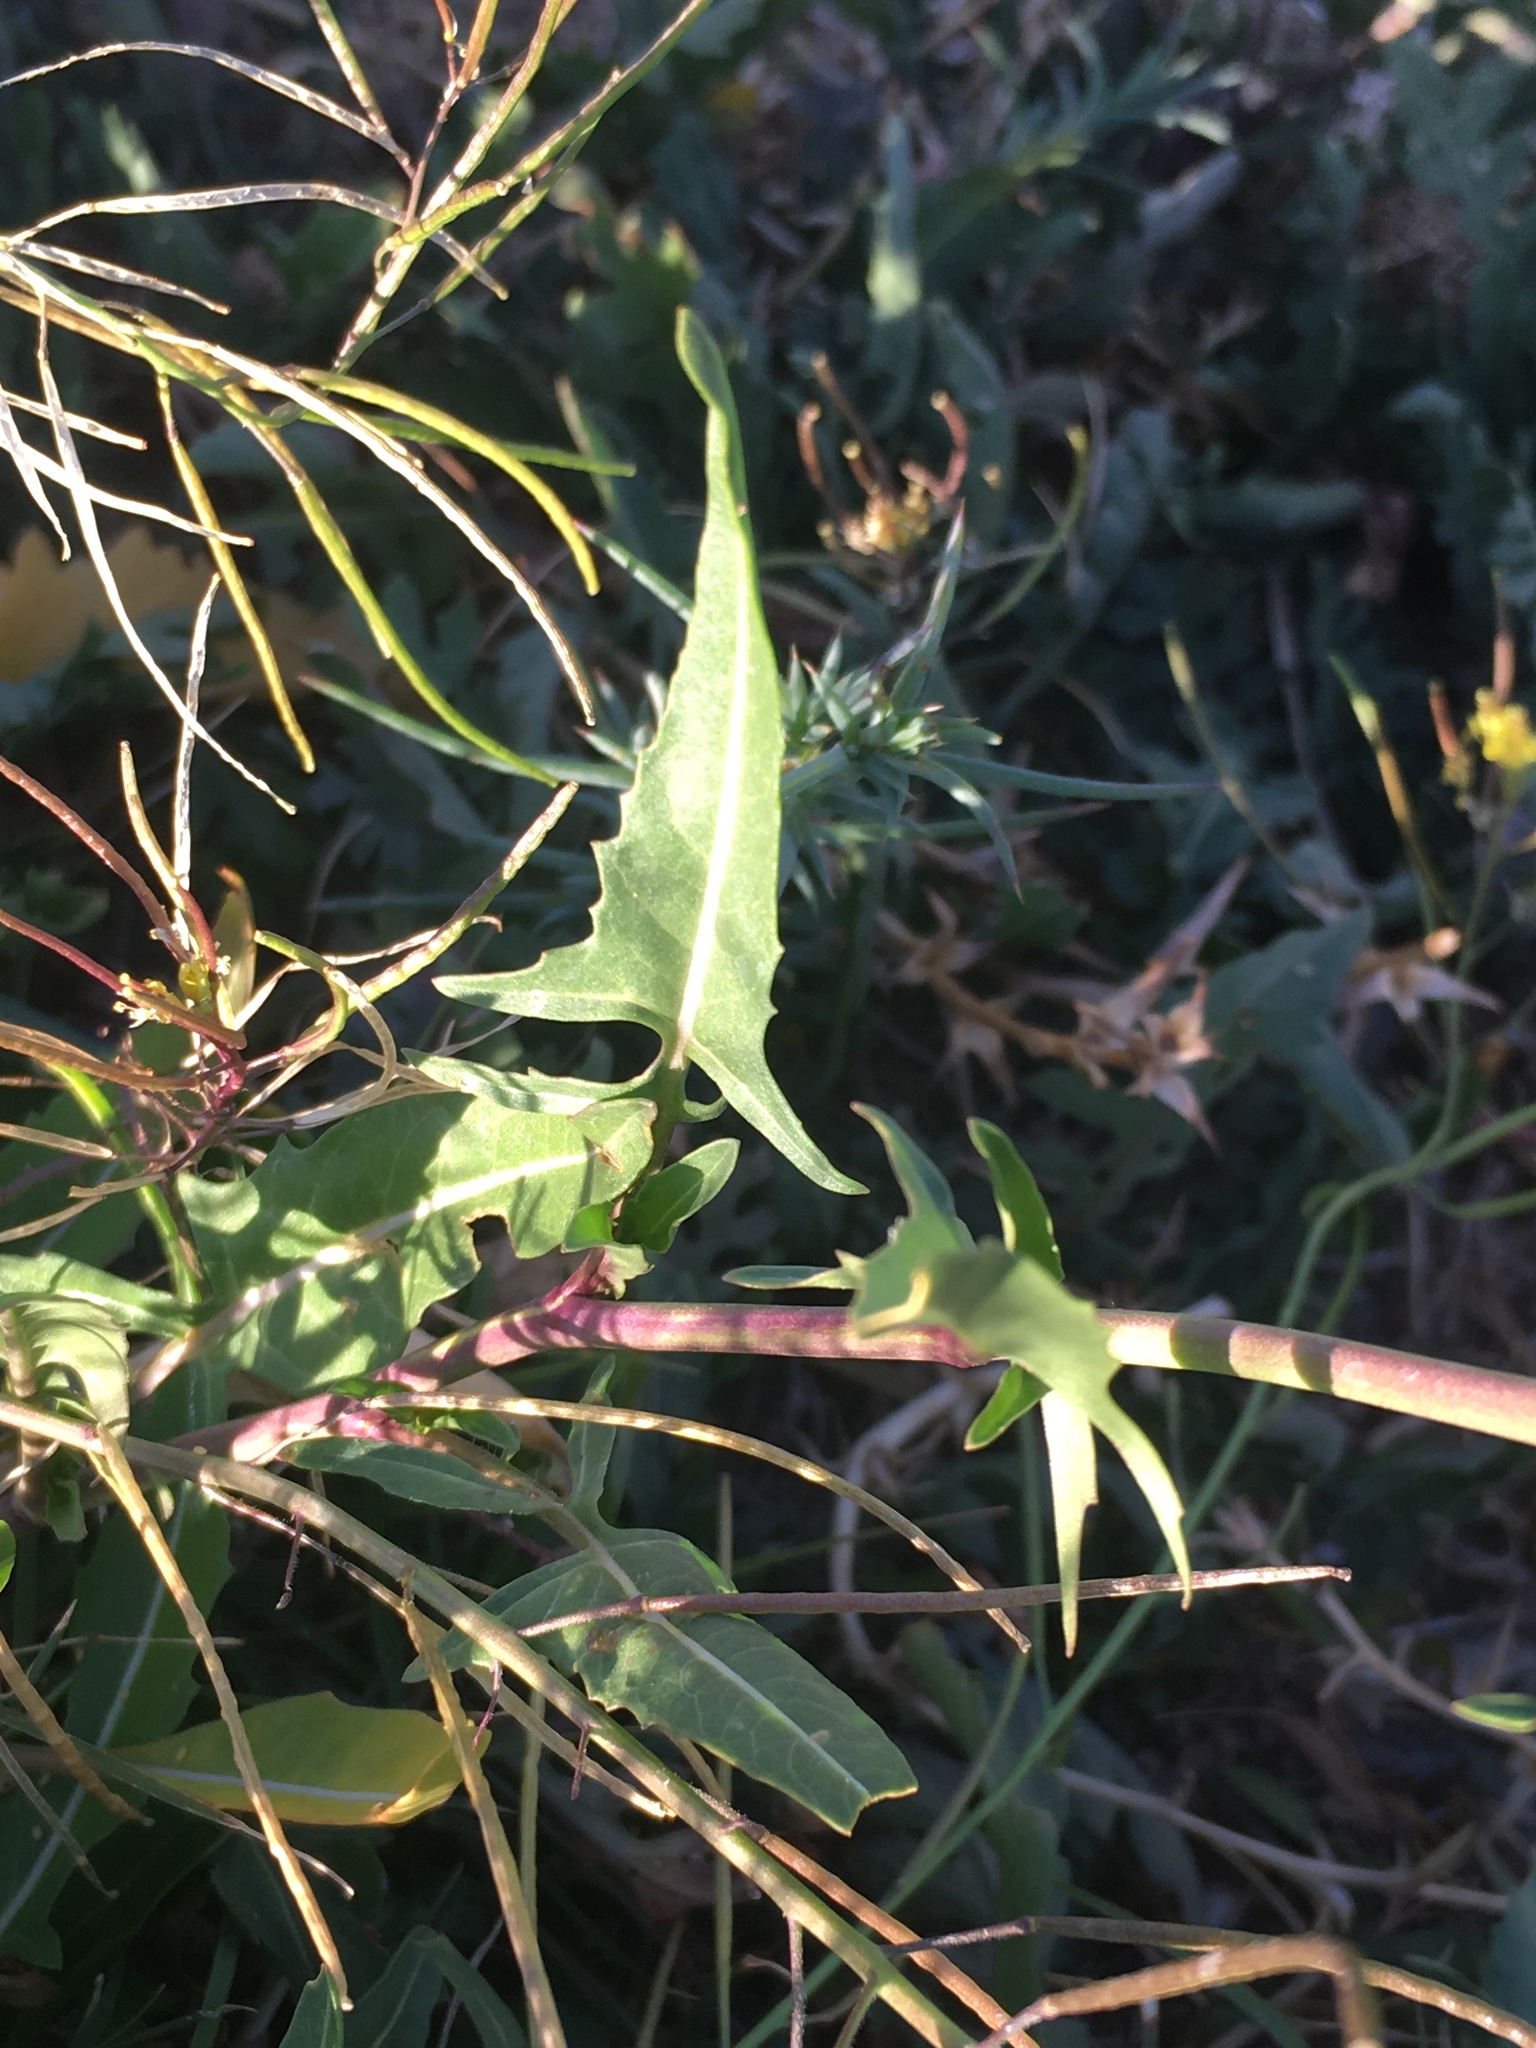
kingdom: Plantae
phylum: Tracheophyta
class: Magnoliopsida
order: Brassicales
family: Brassicaceae
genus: Sisymbrium
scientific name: Sisymbrium irio
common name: London rocket
